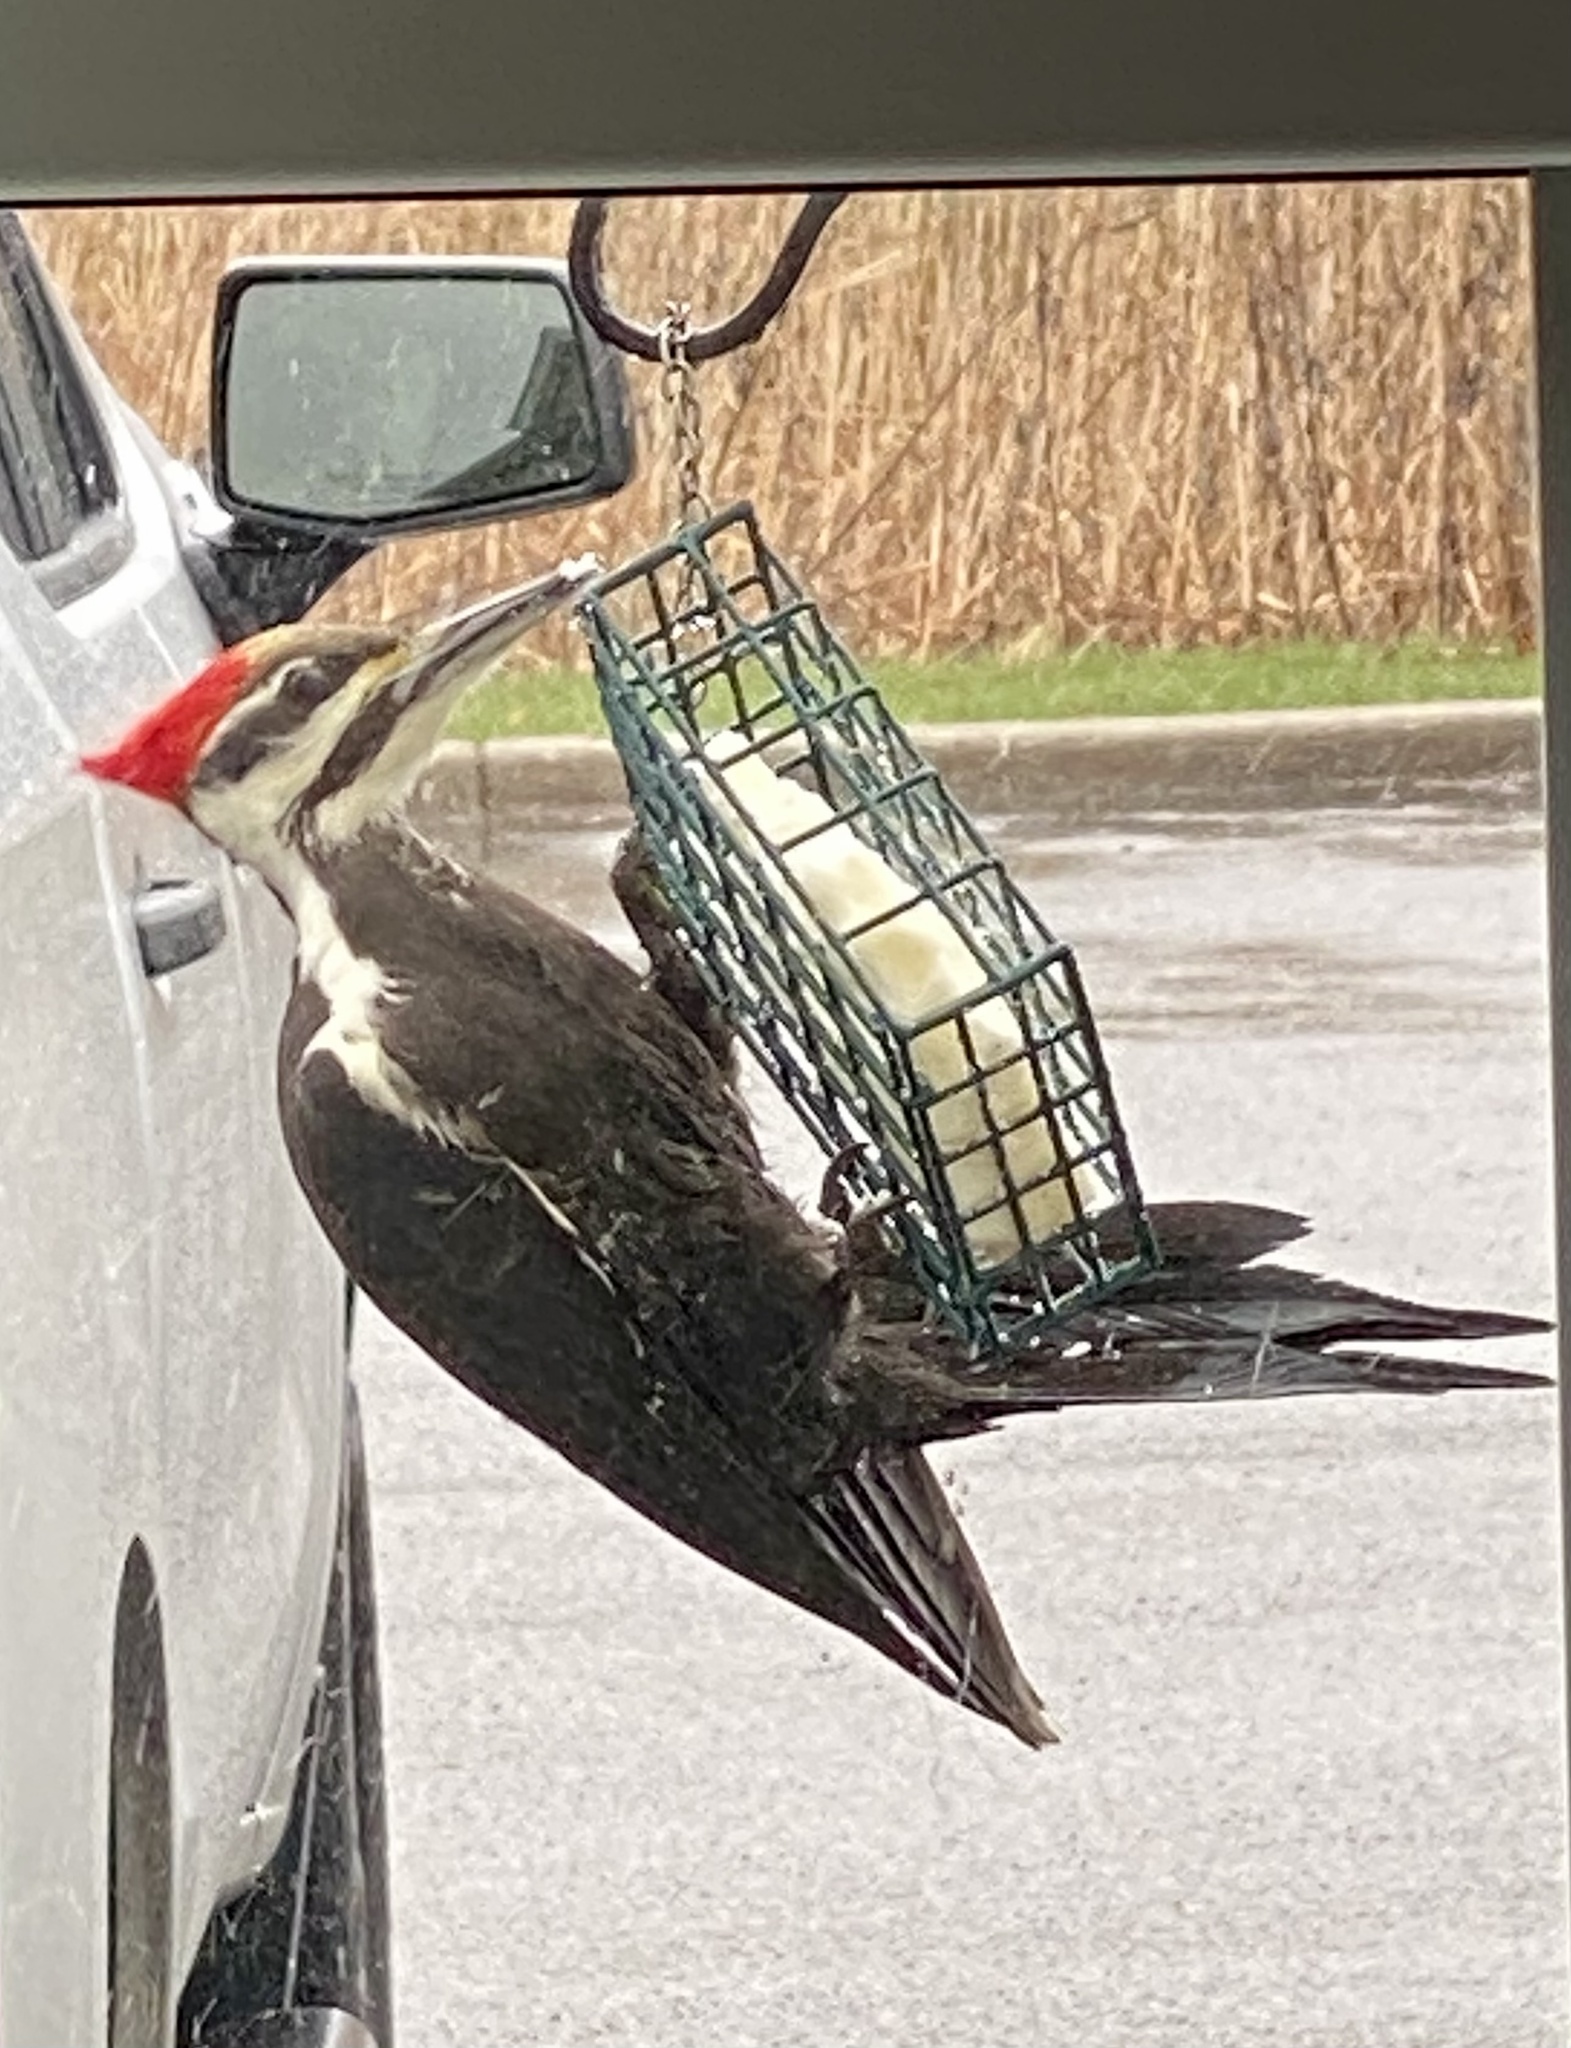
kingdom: Animalia
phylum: Chordata
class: Aves
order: Piciformes
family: Picidae
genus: Dryocopus
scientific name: Dryocopus pileatus
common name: Pileated woodpecker
